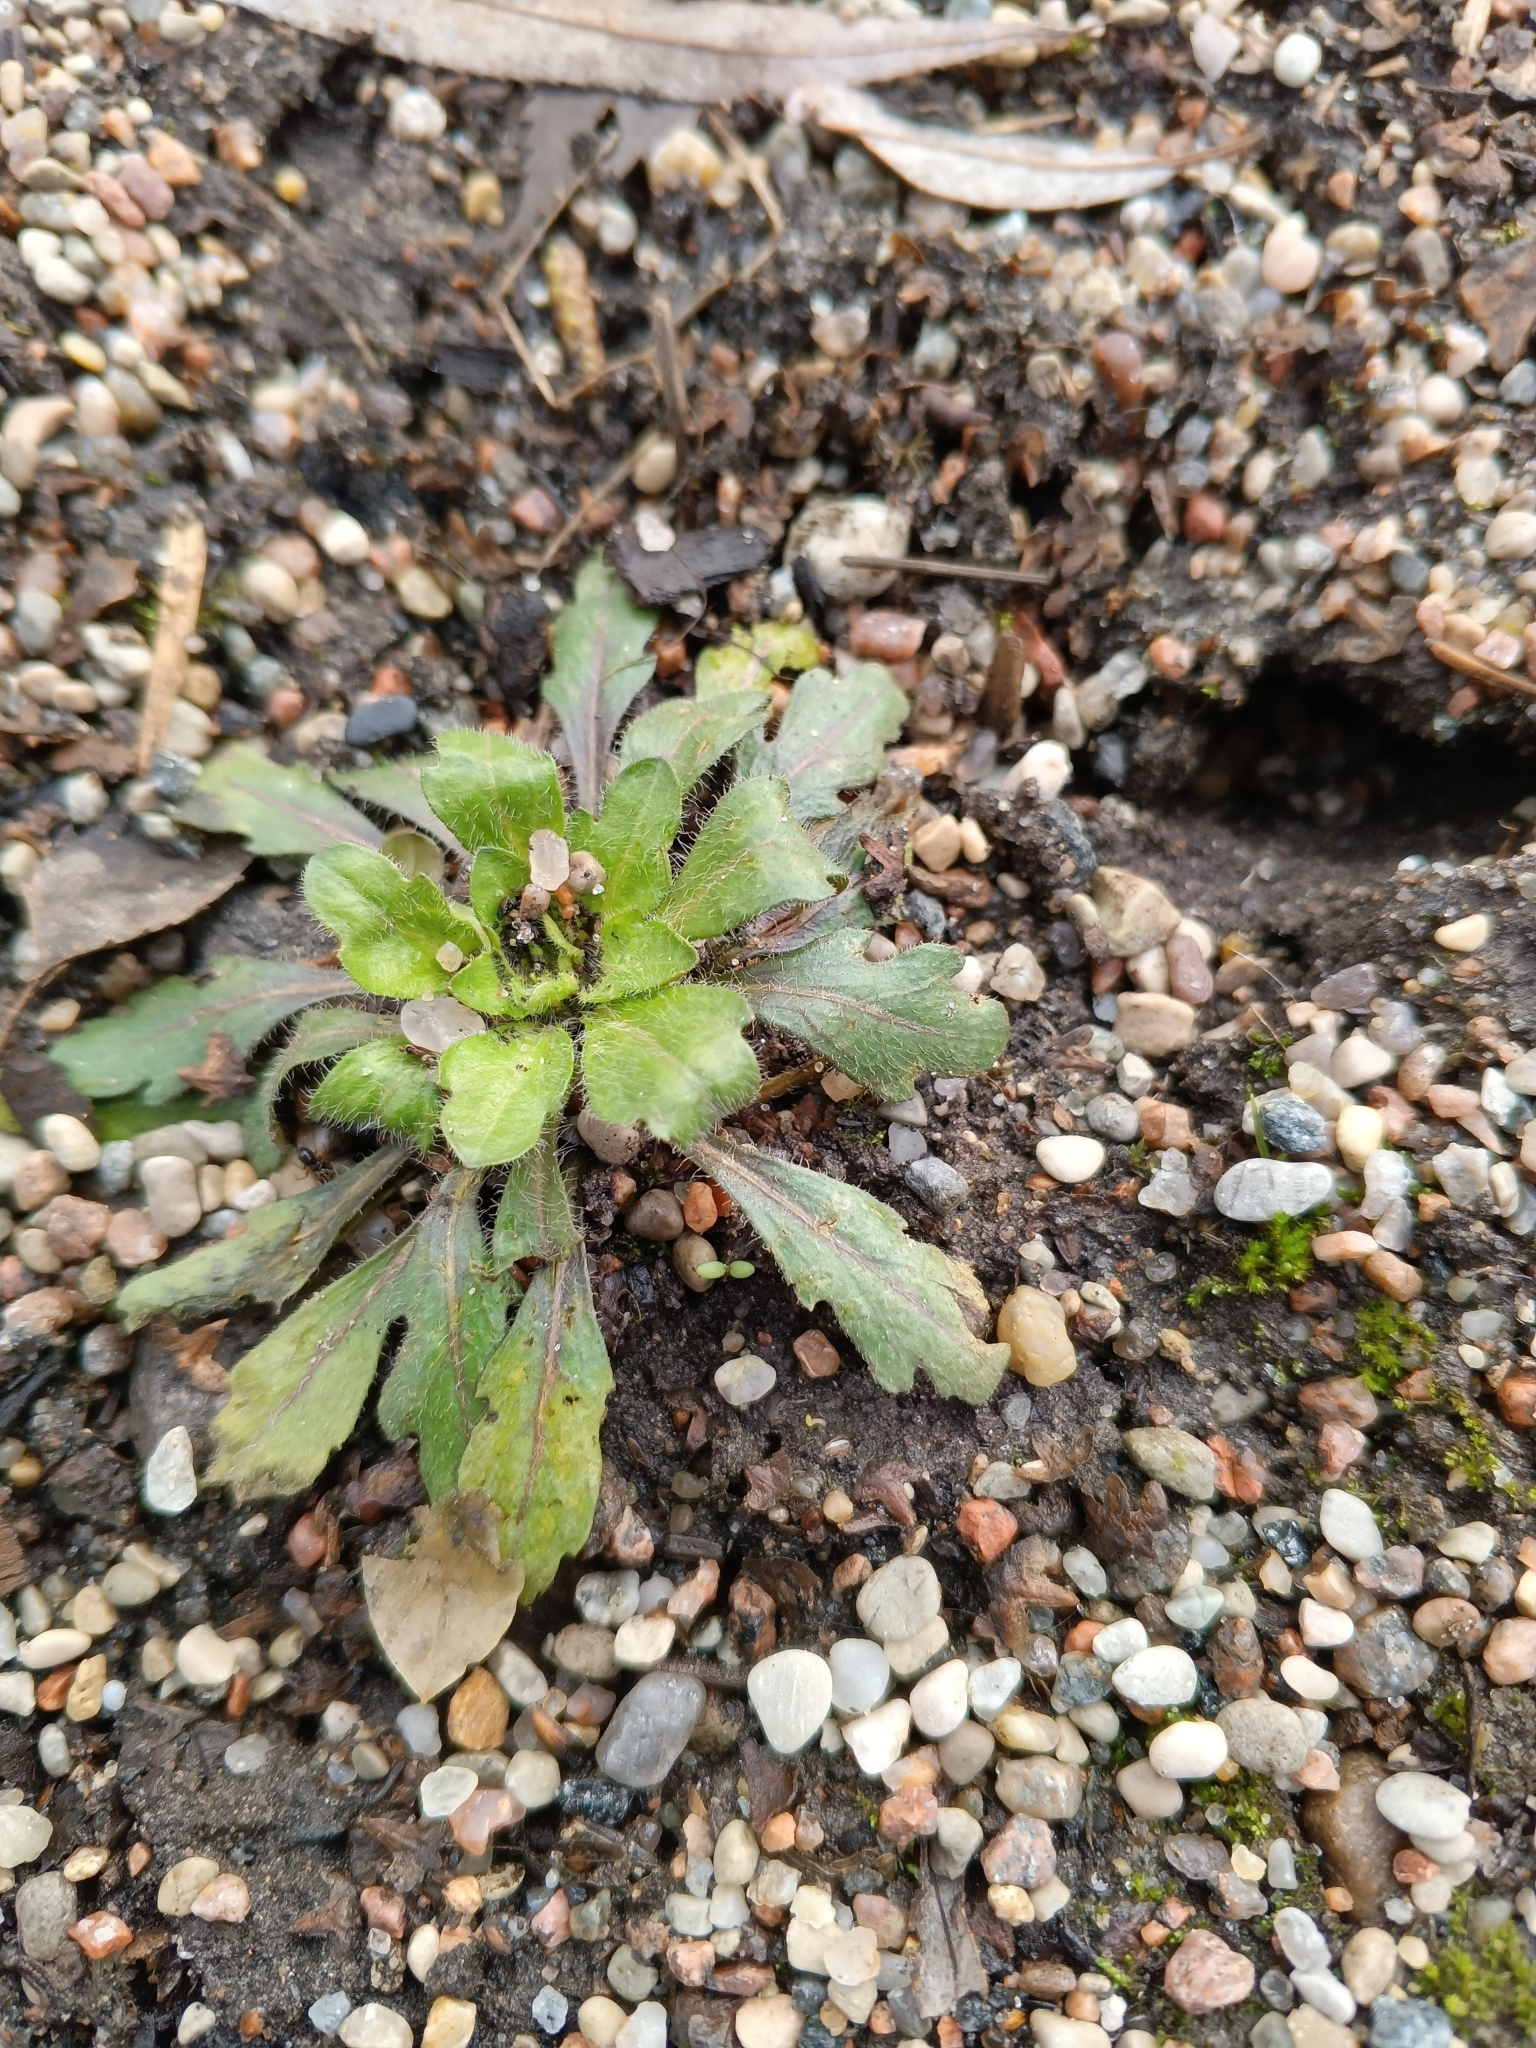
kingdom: Plantae
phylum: Tracheophyta
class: Magnoliopsida
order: Asterales
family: Asteraceae
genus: Erigeron
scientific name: Erigeron canadensis
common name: Canadian fleabane
